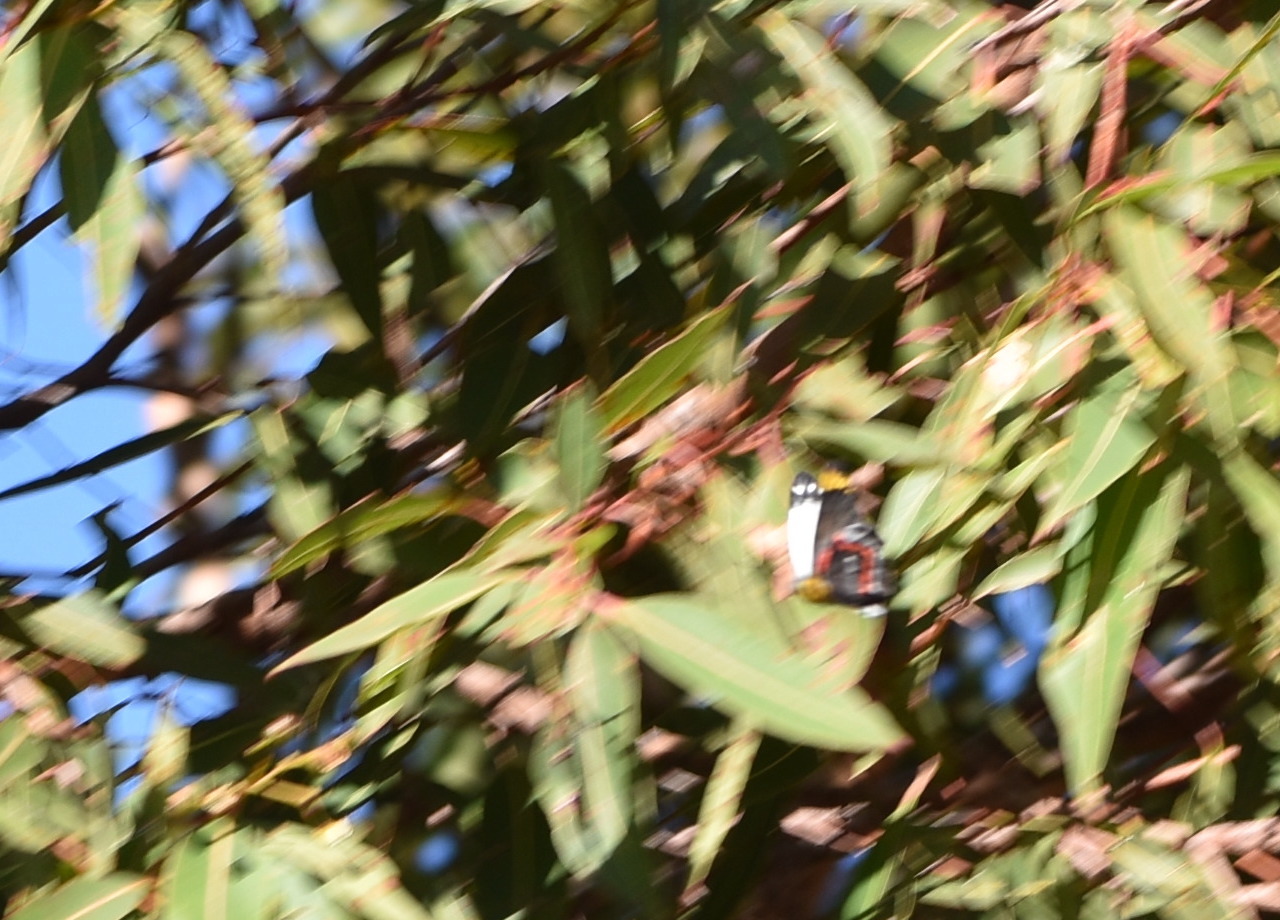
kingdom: Animalia
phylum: Arthropoda
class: Insecta
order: Lepidoptera
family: Pieridae
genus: Delias
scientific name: Delias nigrina
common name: Black jezebel
